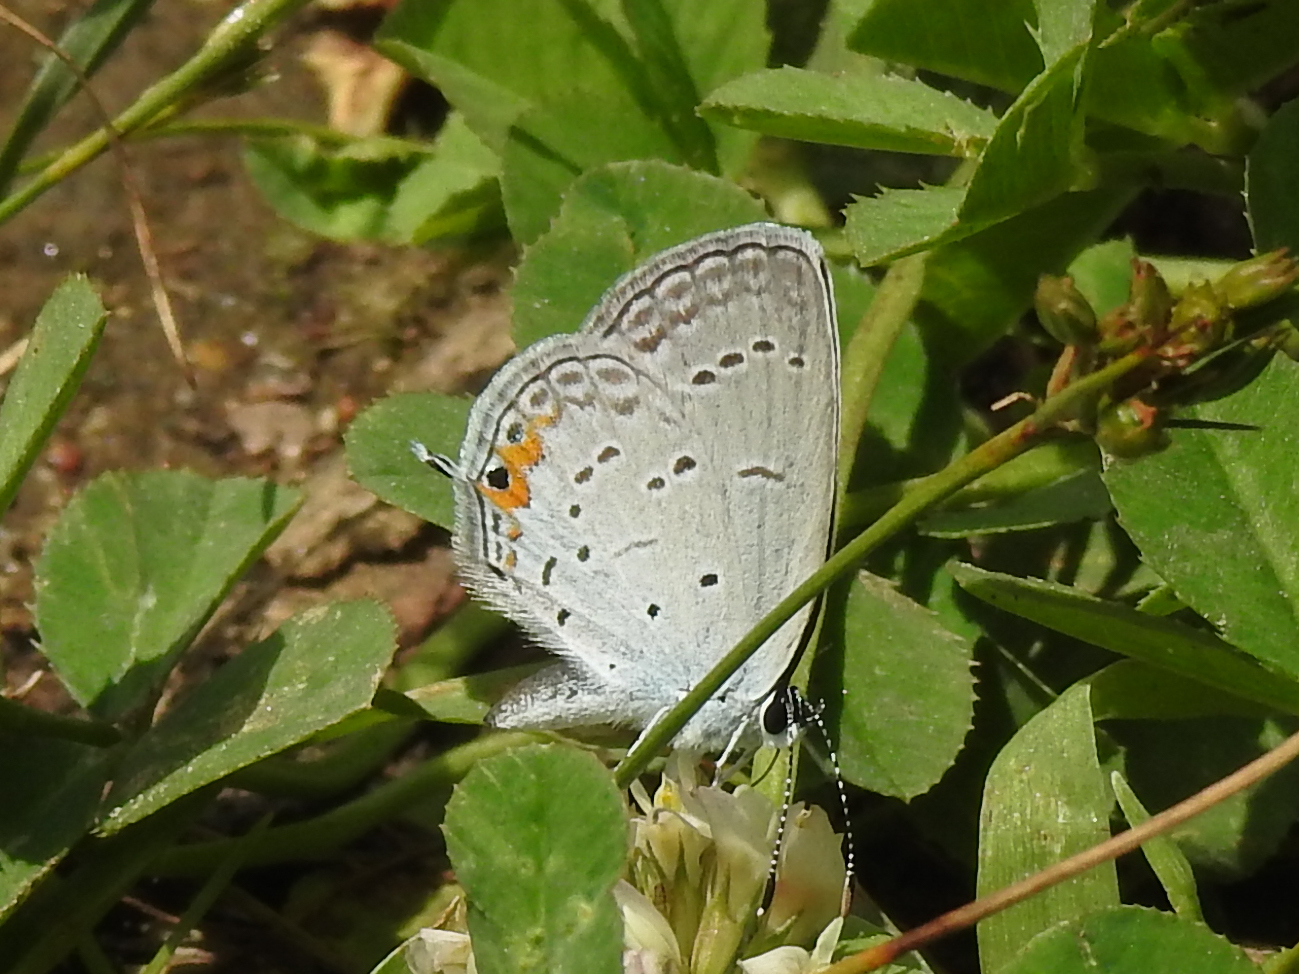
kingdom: Animalia
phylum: Arthropoda
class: Insecta
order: Lepidoptera
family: Lycaenidae
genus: Elkalyce
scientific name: Elkalyce comyntas
